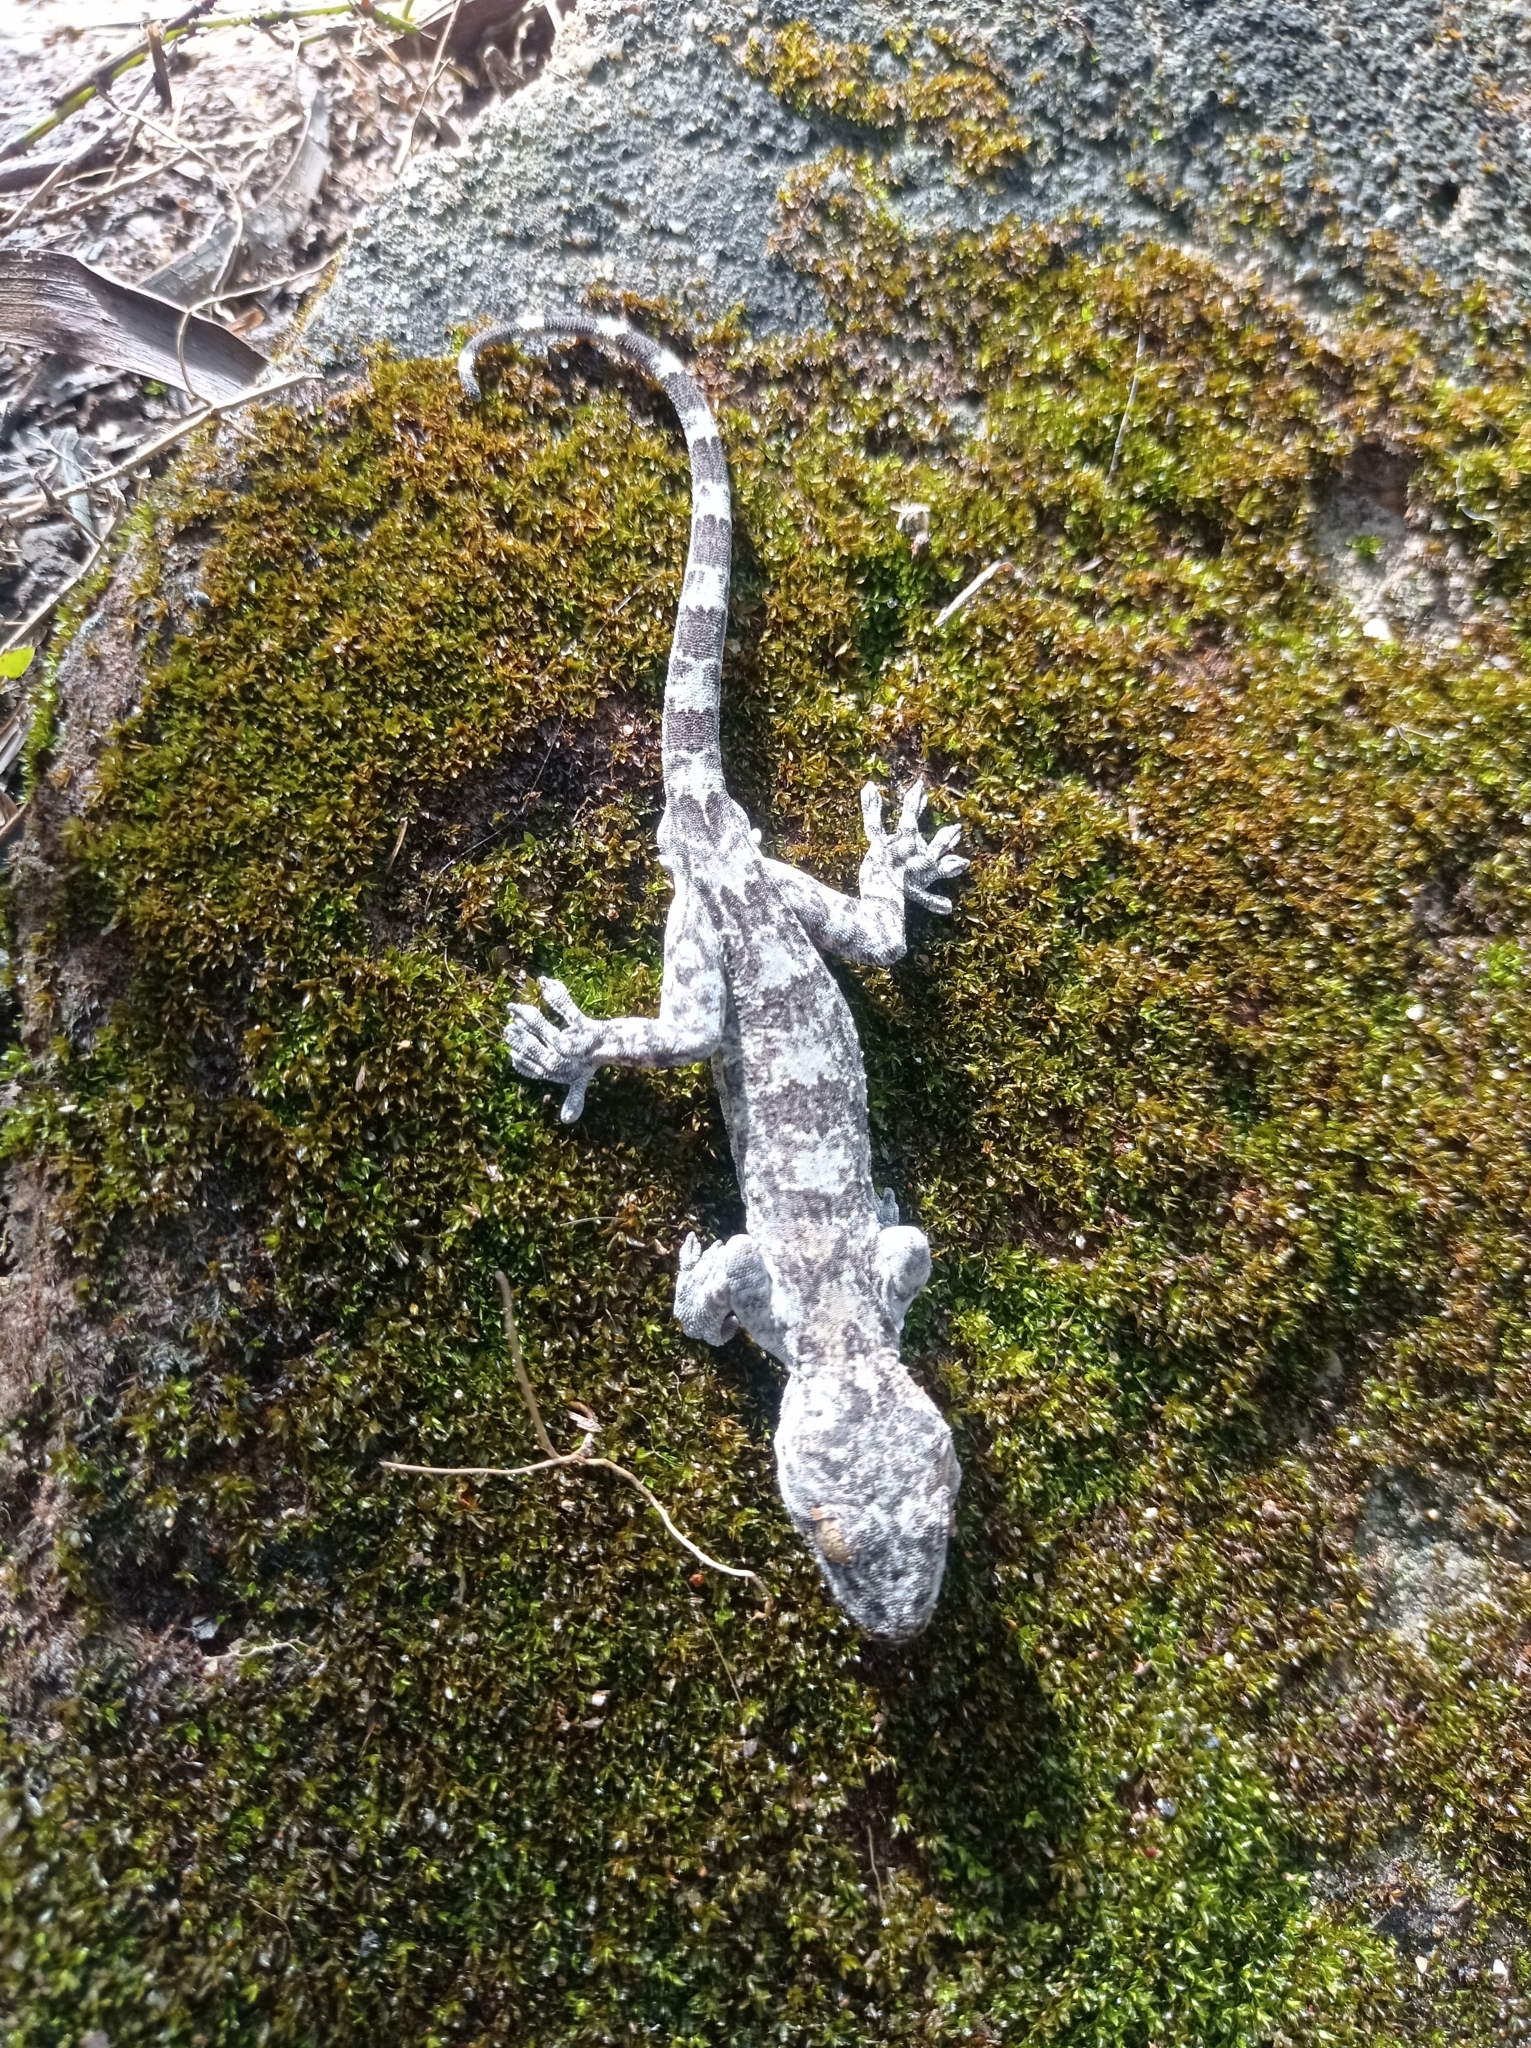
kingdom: Animalia
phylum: Chordata
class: Squamata
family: Gekkonidae
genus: Gekko
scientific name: Gekko chinensis
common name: Gray's chinese gecko
